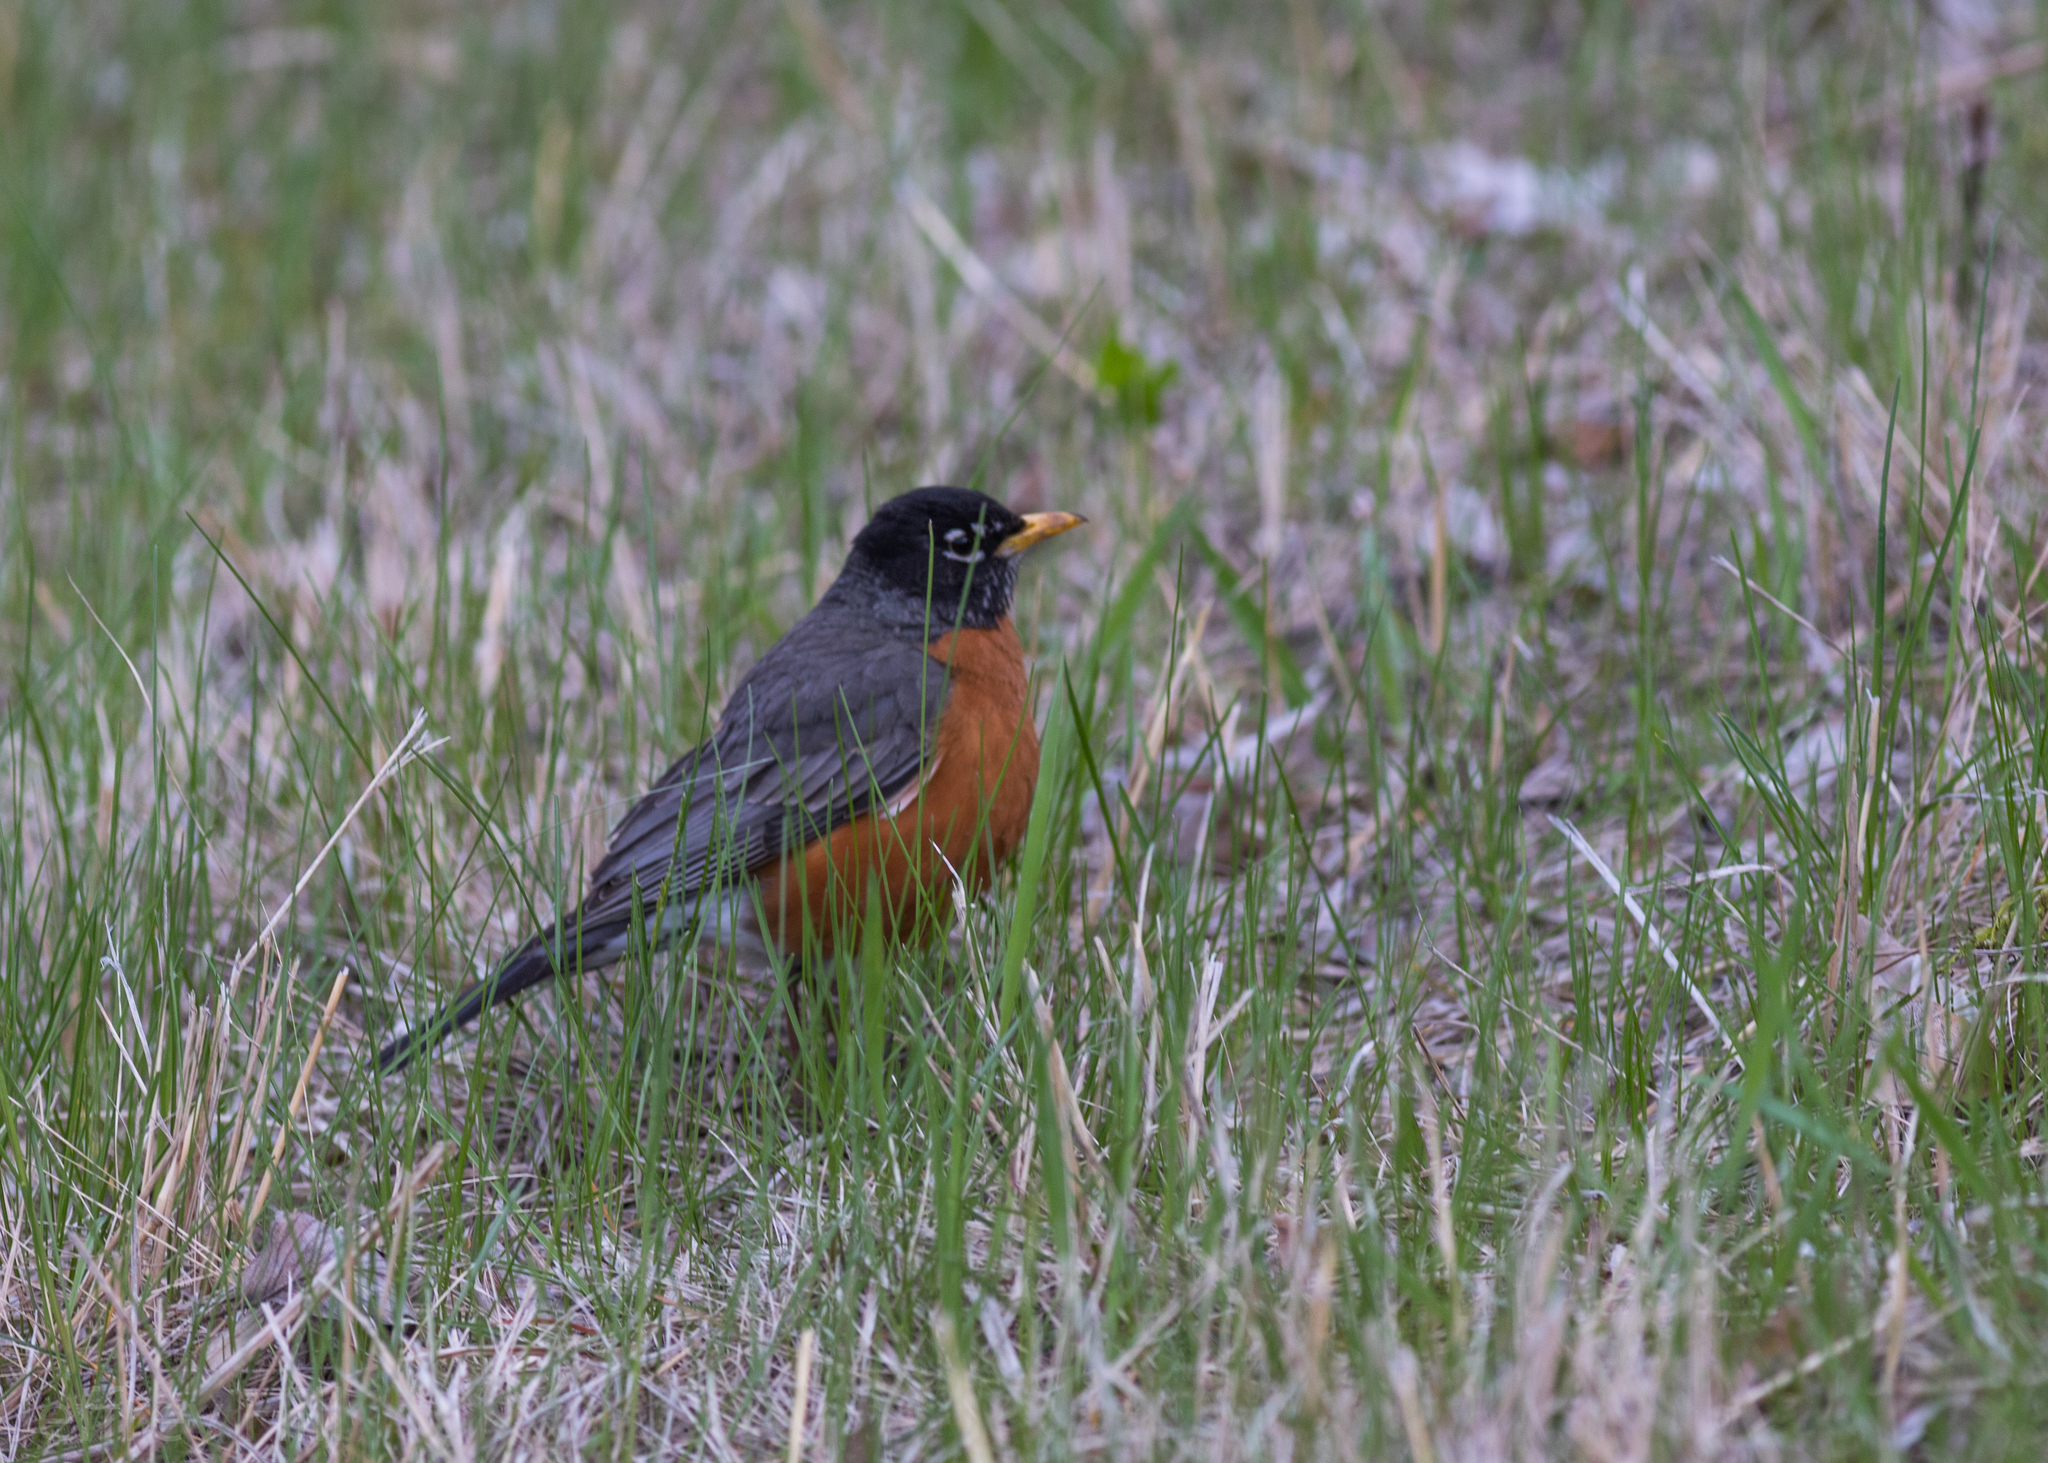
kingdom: Animalia
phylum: Chordata
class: Aves
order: Passeriformes
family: Turdidae
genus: Turdus
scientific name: Turdus migratorius
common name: American robin
